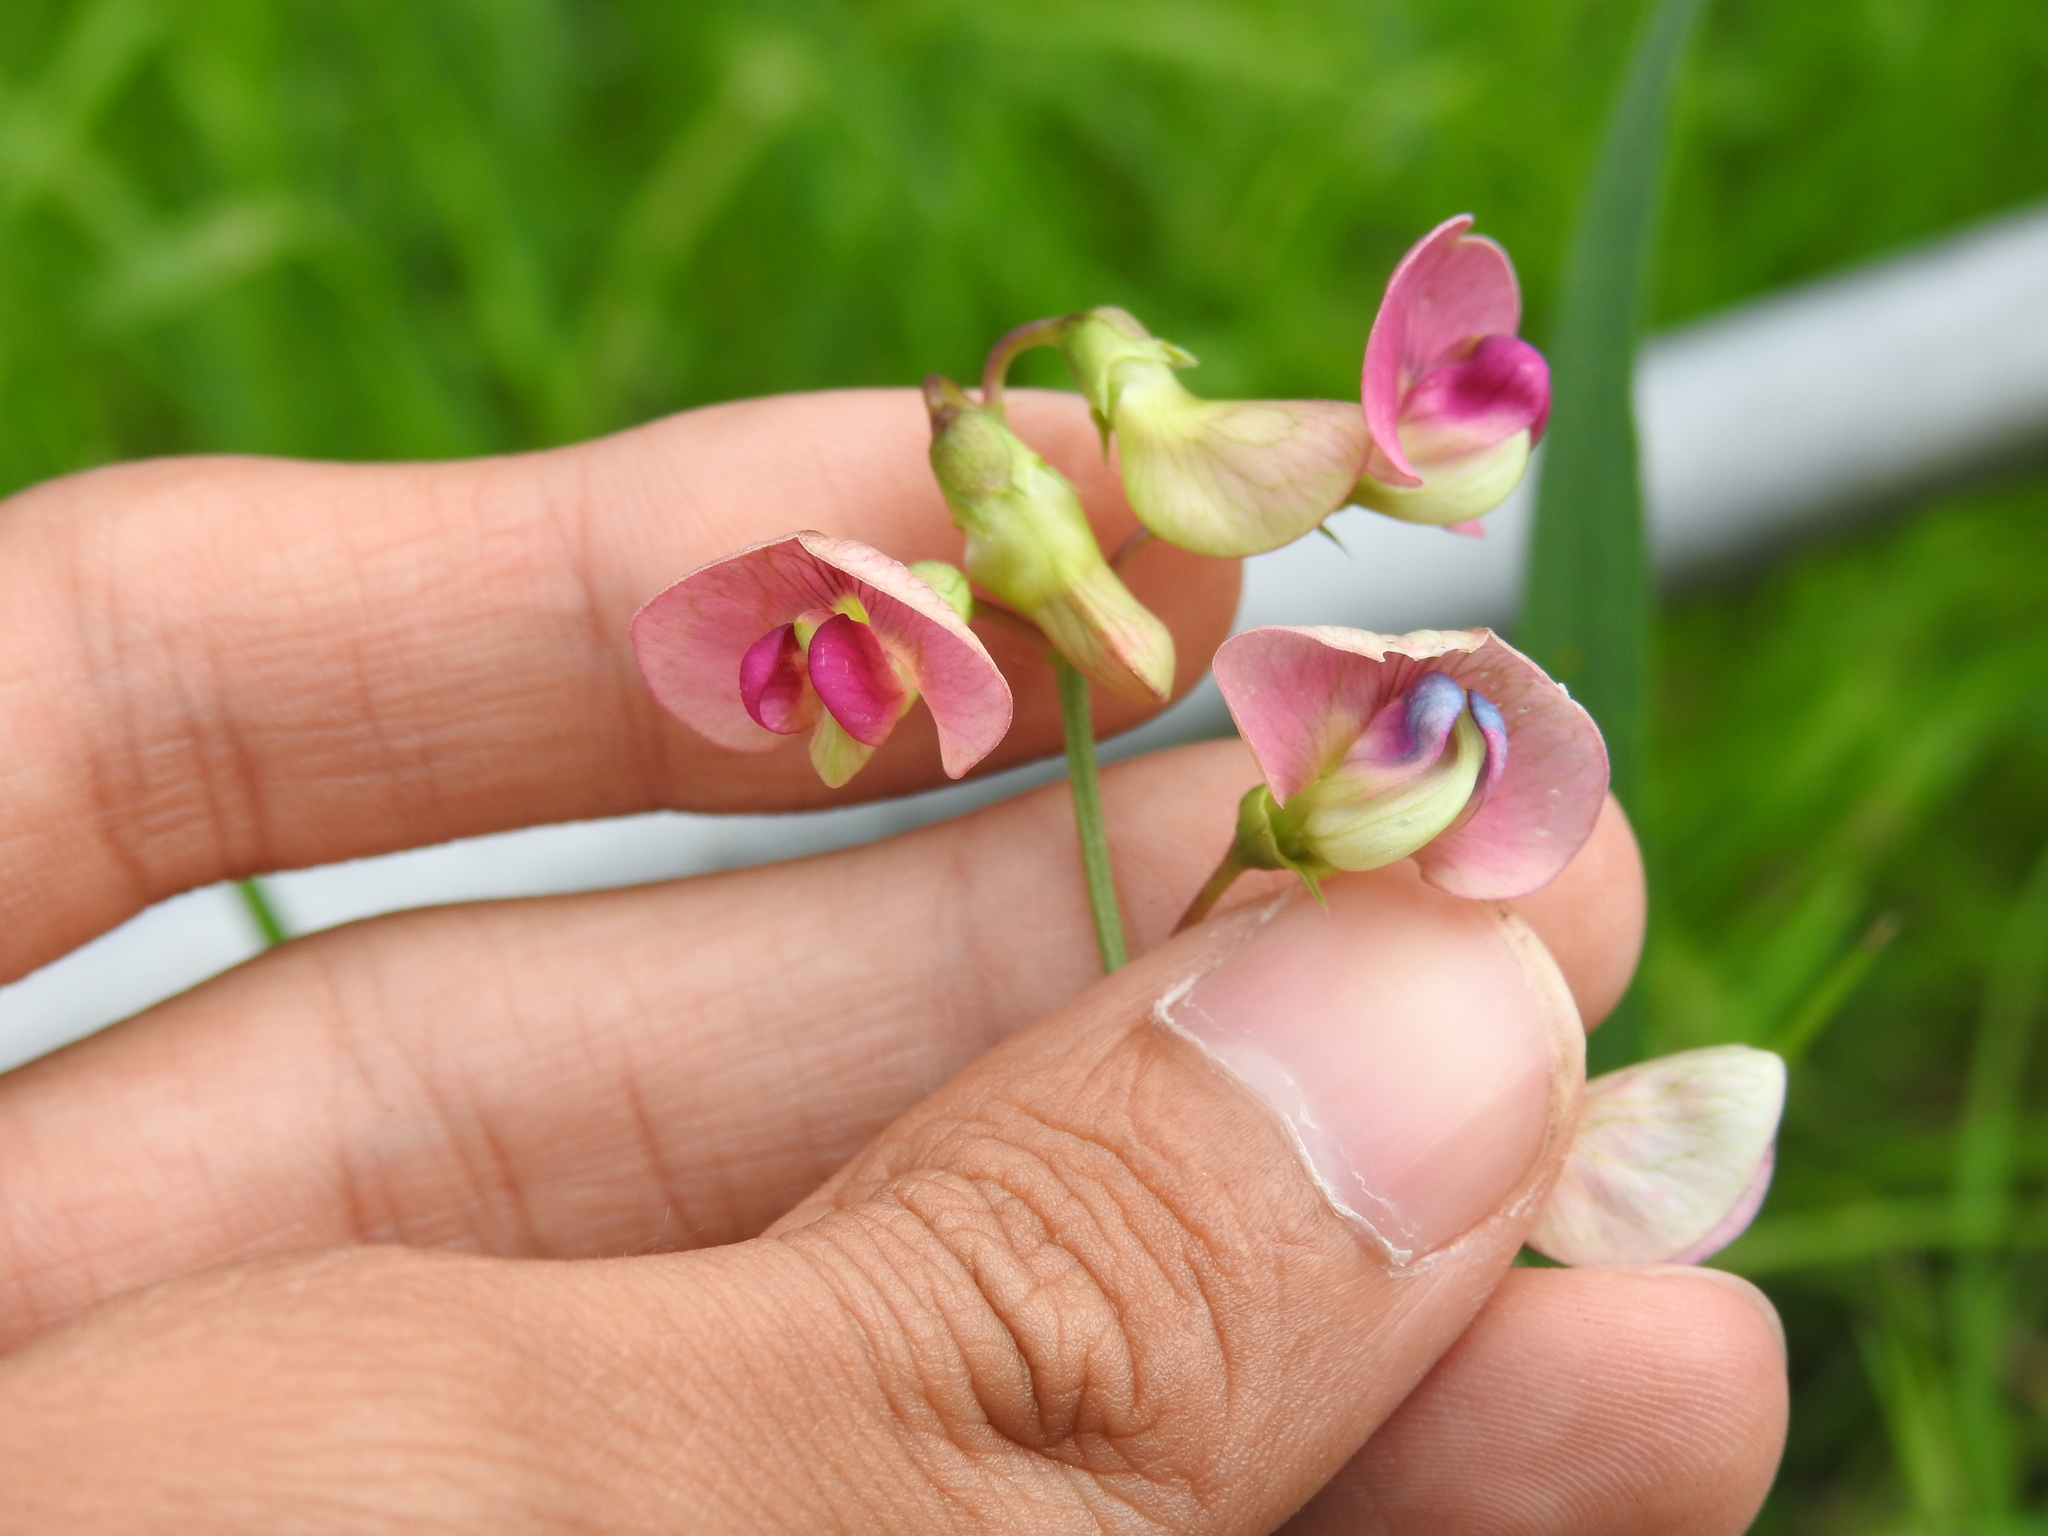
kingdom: Plantae
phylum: Tracheophyta
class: Magnoliopsida
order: Fabales
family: Fabaceae
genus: Lathyrus
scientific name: Lathyrus sylvestris
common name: Flat pea
